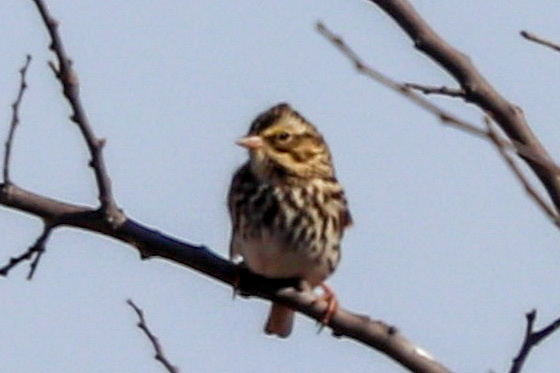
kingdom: Animalia
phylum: Chordata
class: Aves
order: Passeriformes
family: Passerellidae
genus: Passerculus
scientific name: Passerculus sandwichensis
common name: Savannah sparrow
